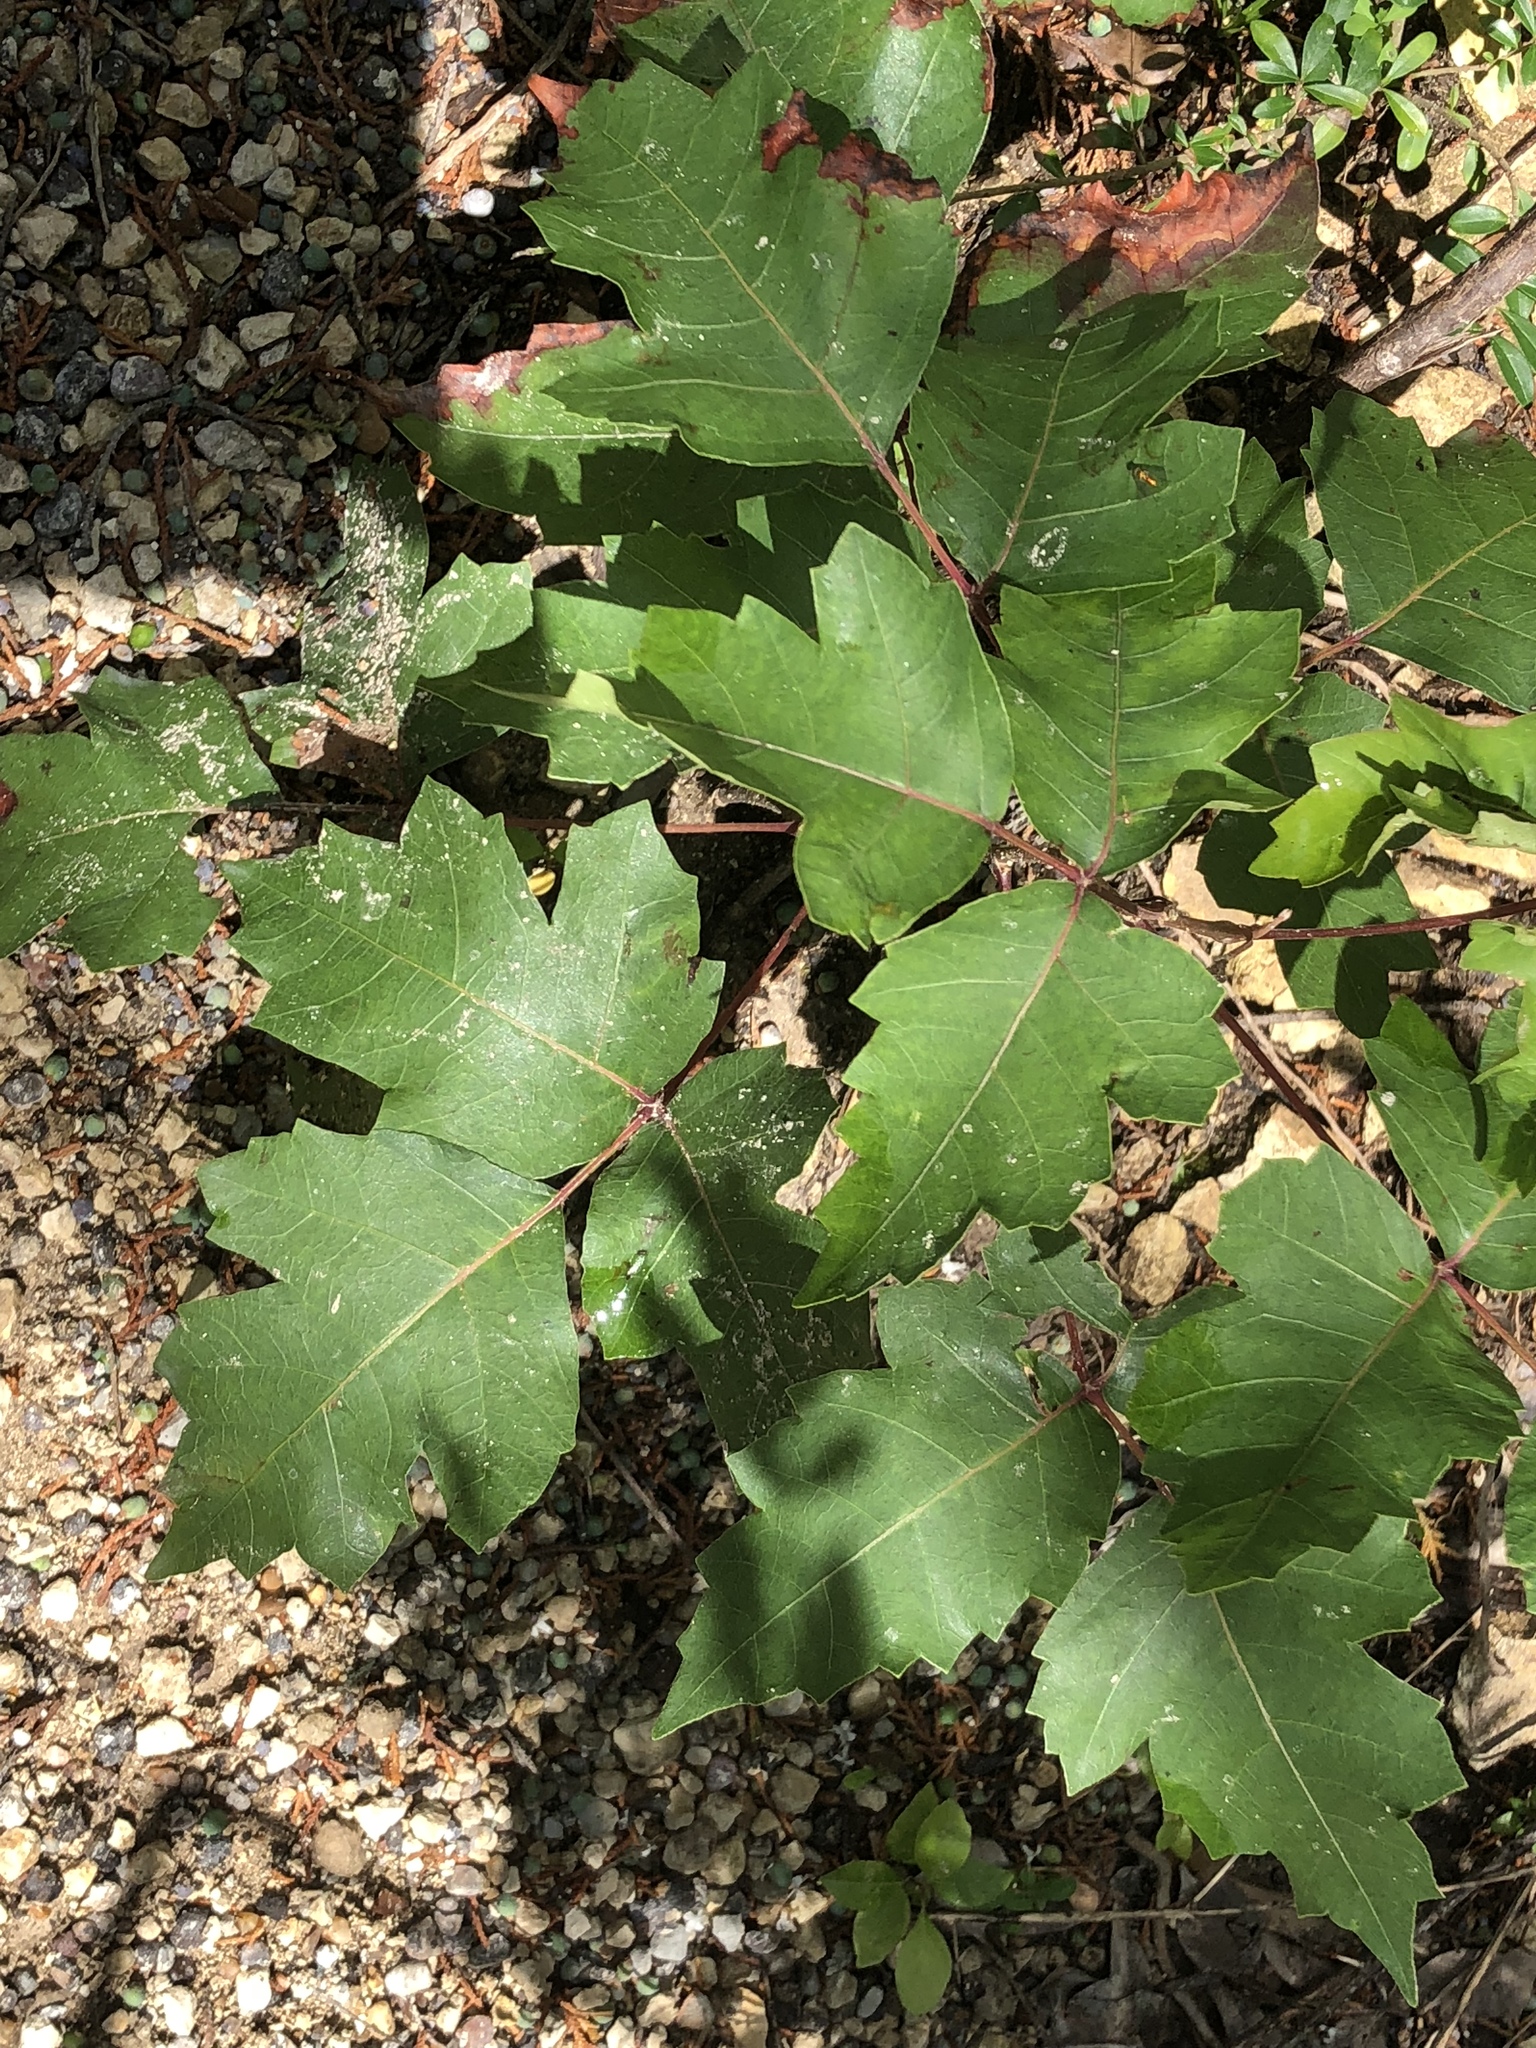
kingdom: Plantae
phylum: Tracheophyta
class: Magnoliopsida
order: Sapindales
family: Anacardiaceae
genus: Toxicodendron
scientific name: Toxicodendron radicans
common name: Poison ivy
